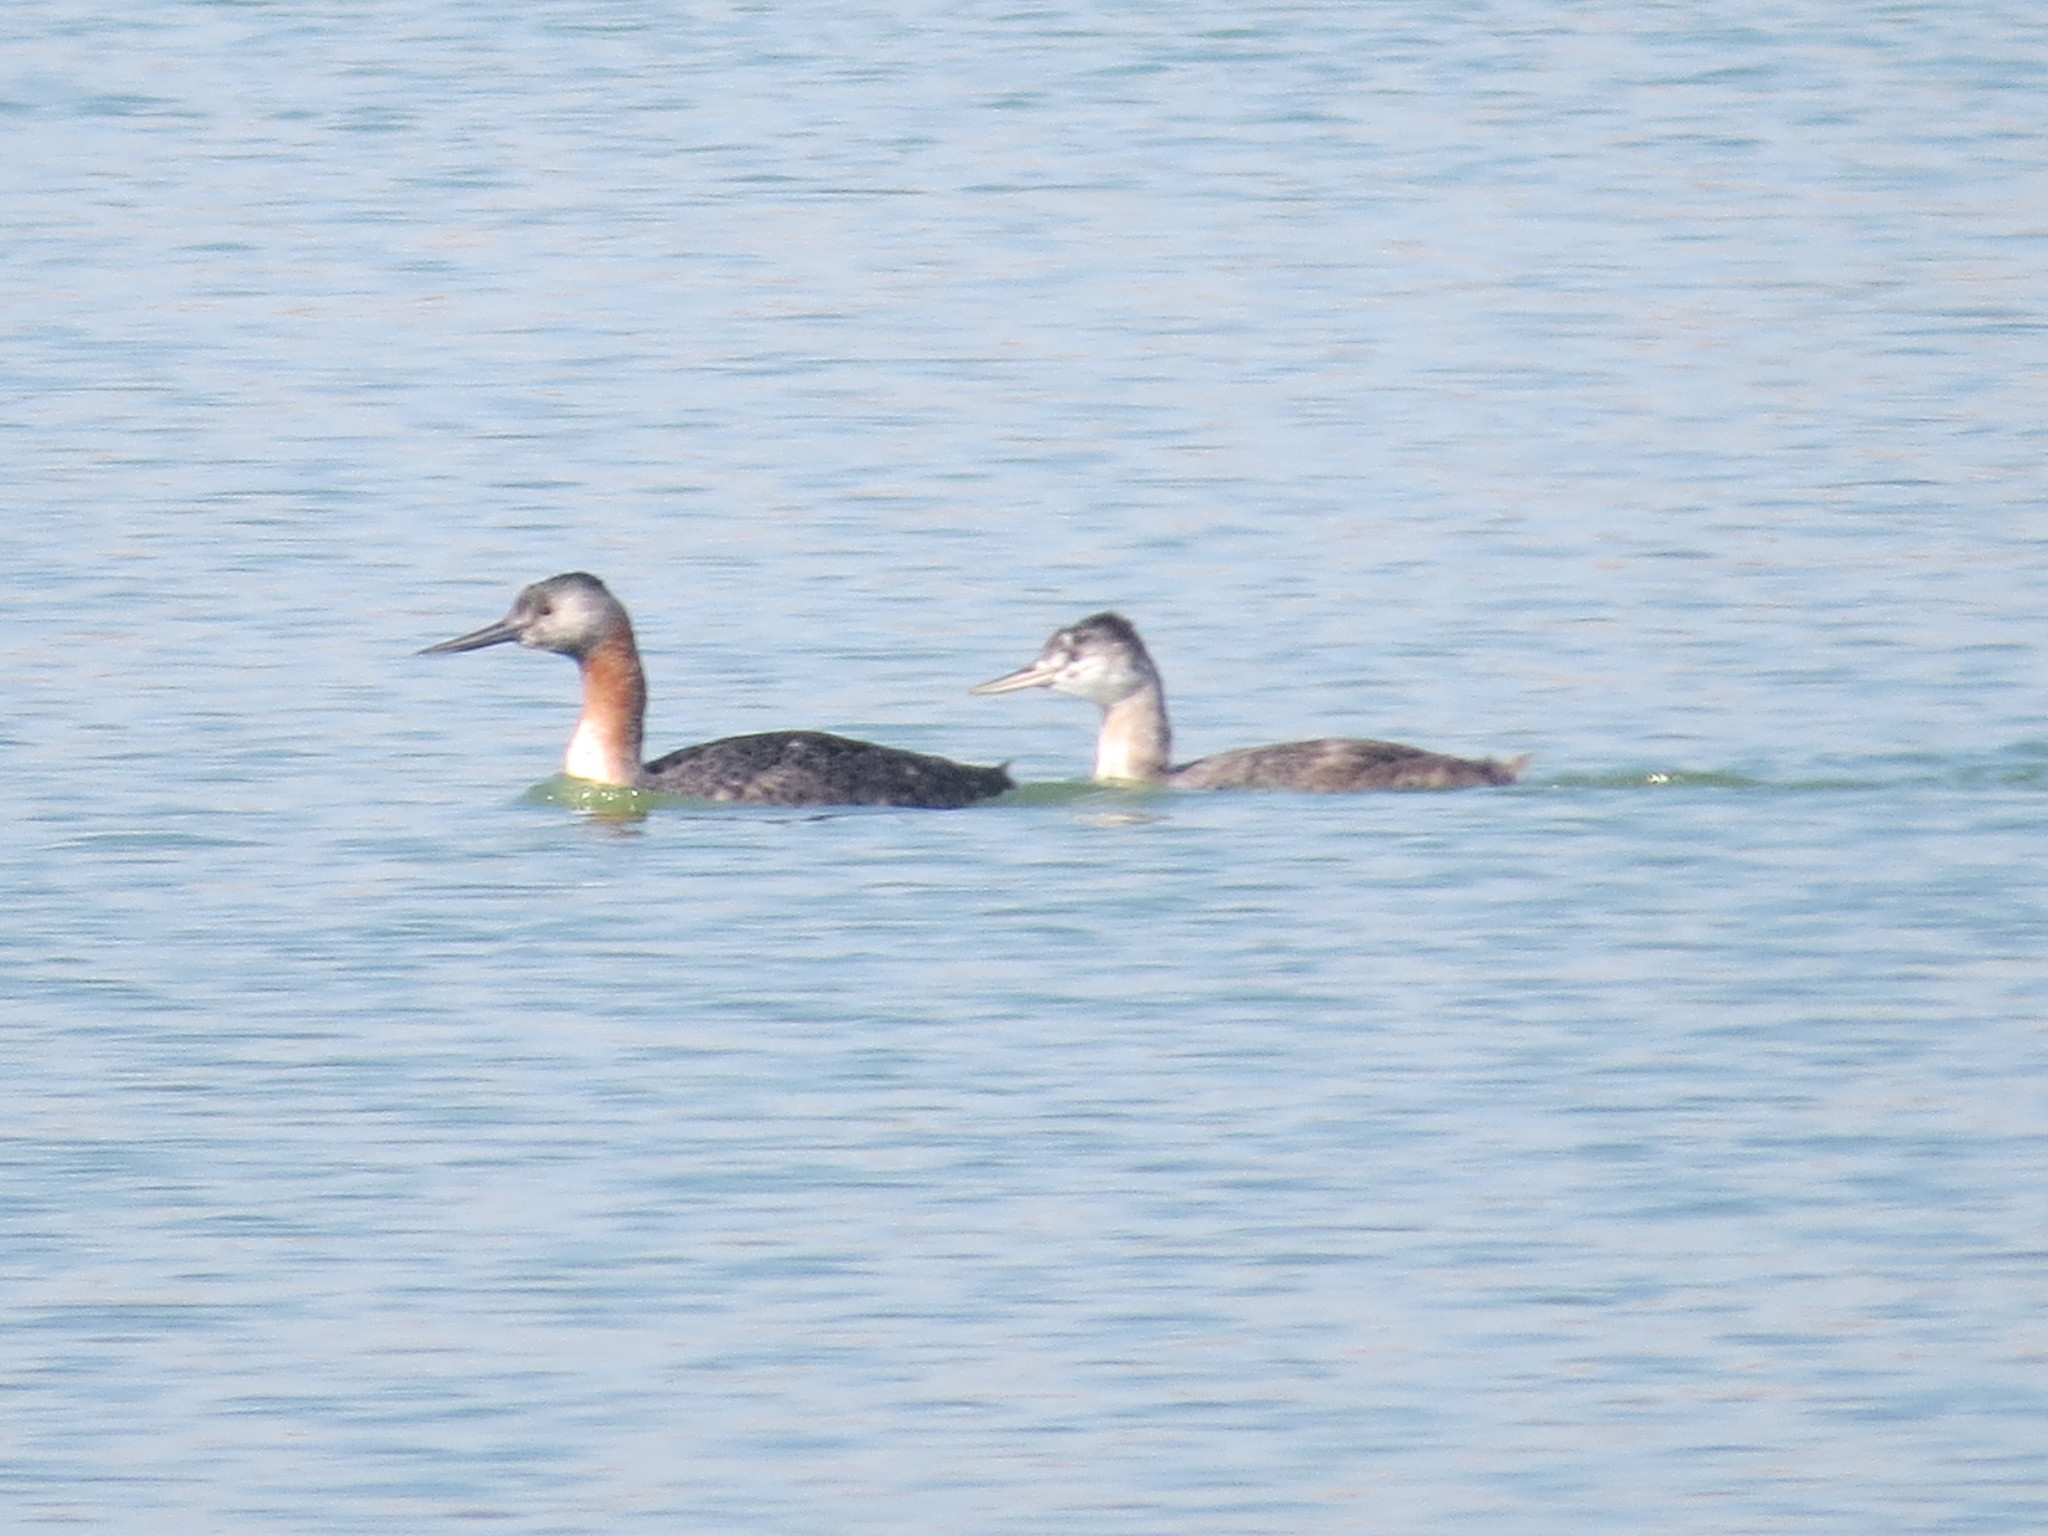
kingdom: Animalia
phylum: Chordata
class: Aves
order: Podicipediformes
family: Podicipedidae
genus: Podiceps
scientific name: Podiceps major
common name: Great grebe
